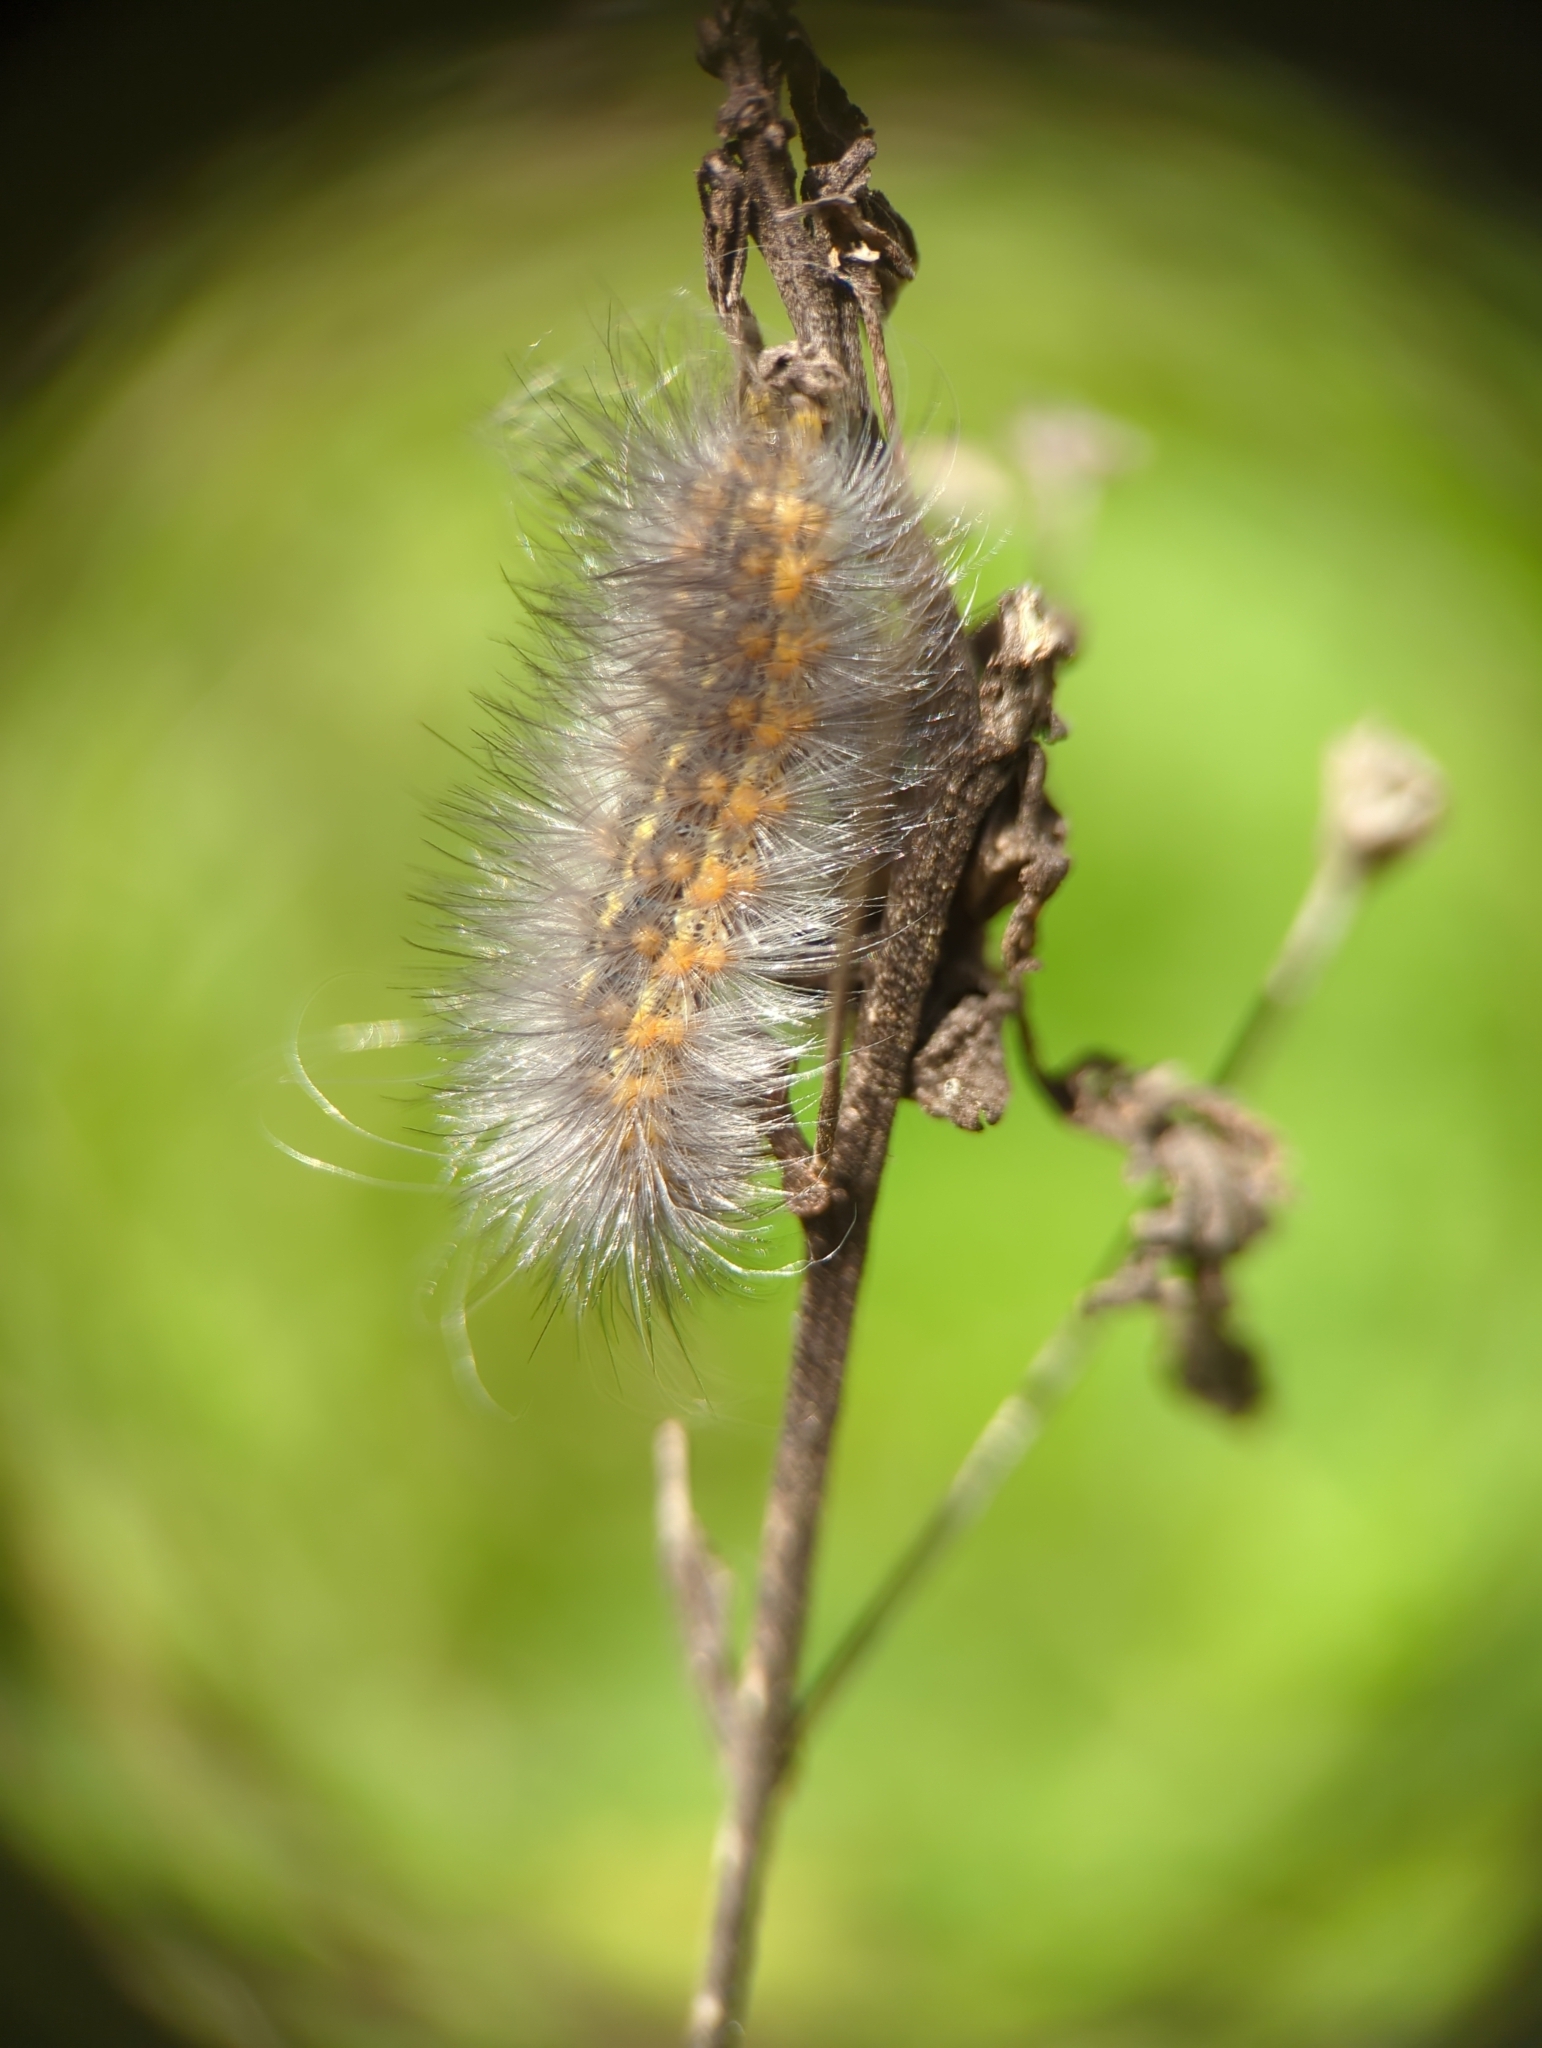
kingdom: Animalia
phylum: Arthropoda
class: Insecta
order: Lepidoptera
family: Erebidae
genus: Estigmene
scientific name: Estigmene acrea
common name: Salt marsh moth
